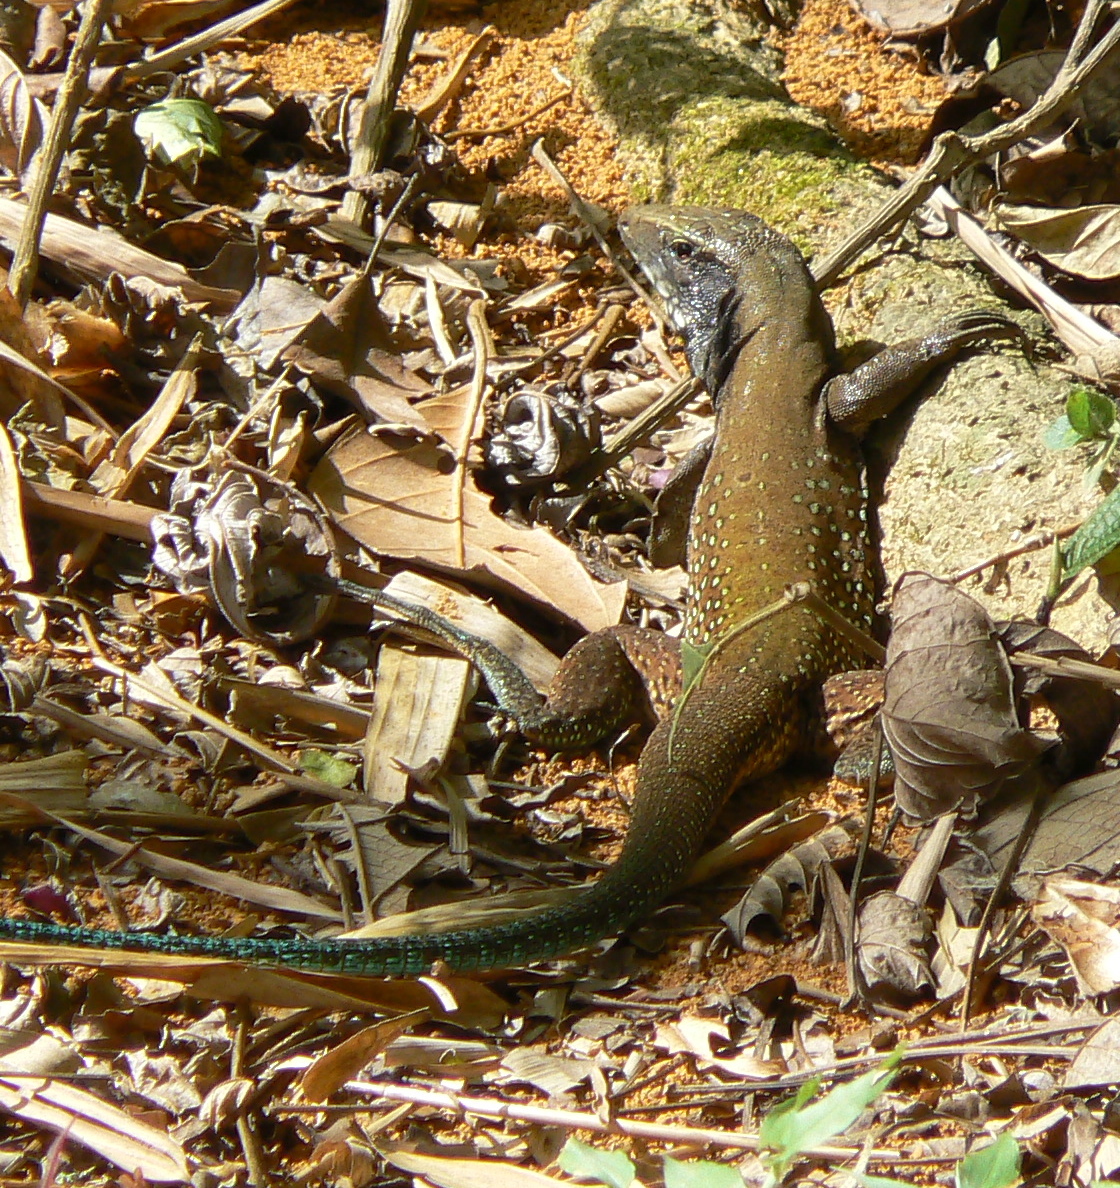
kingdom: Animalia
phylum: Chordata
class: Squamata
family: Teiidae
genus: Ameiva
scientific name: Ameiva atrigularis
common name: Venezuelan ameiva
